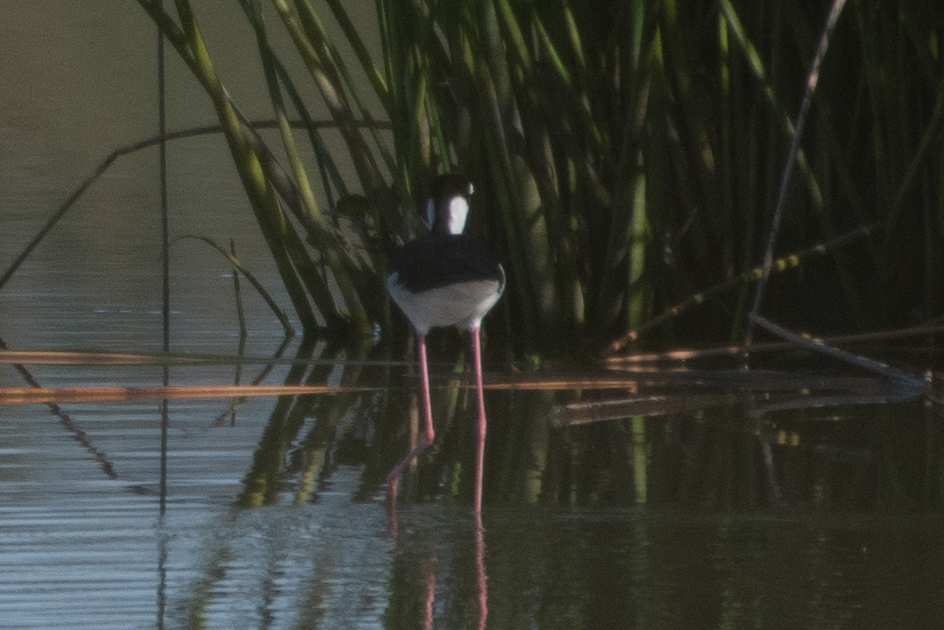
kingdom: Animalia
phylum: Chordata
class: Aves
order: Charadriiformes
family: Recurvirostridae
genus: Himantopus
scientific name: Himantopus mexicanus
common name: Black-necked stilt
